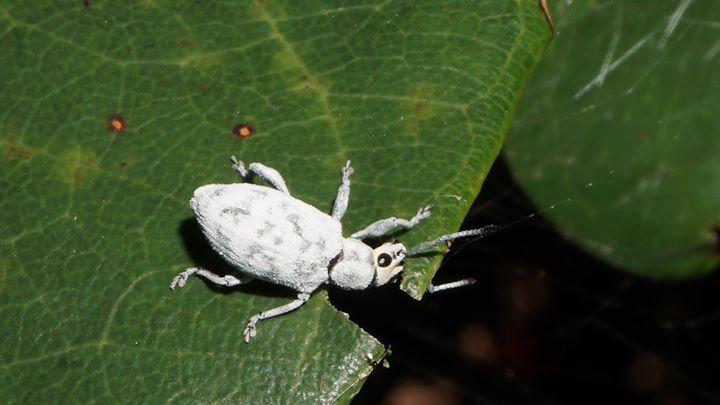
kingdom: Animalia
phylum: Arthropoda
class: Insecta
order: Coleoptera
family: Curculionidae
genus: Myllocerus
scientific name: Myllocerus undecimpustulatus
